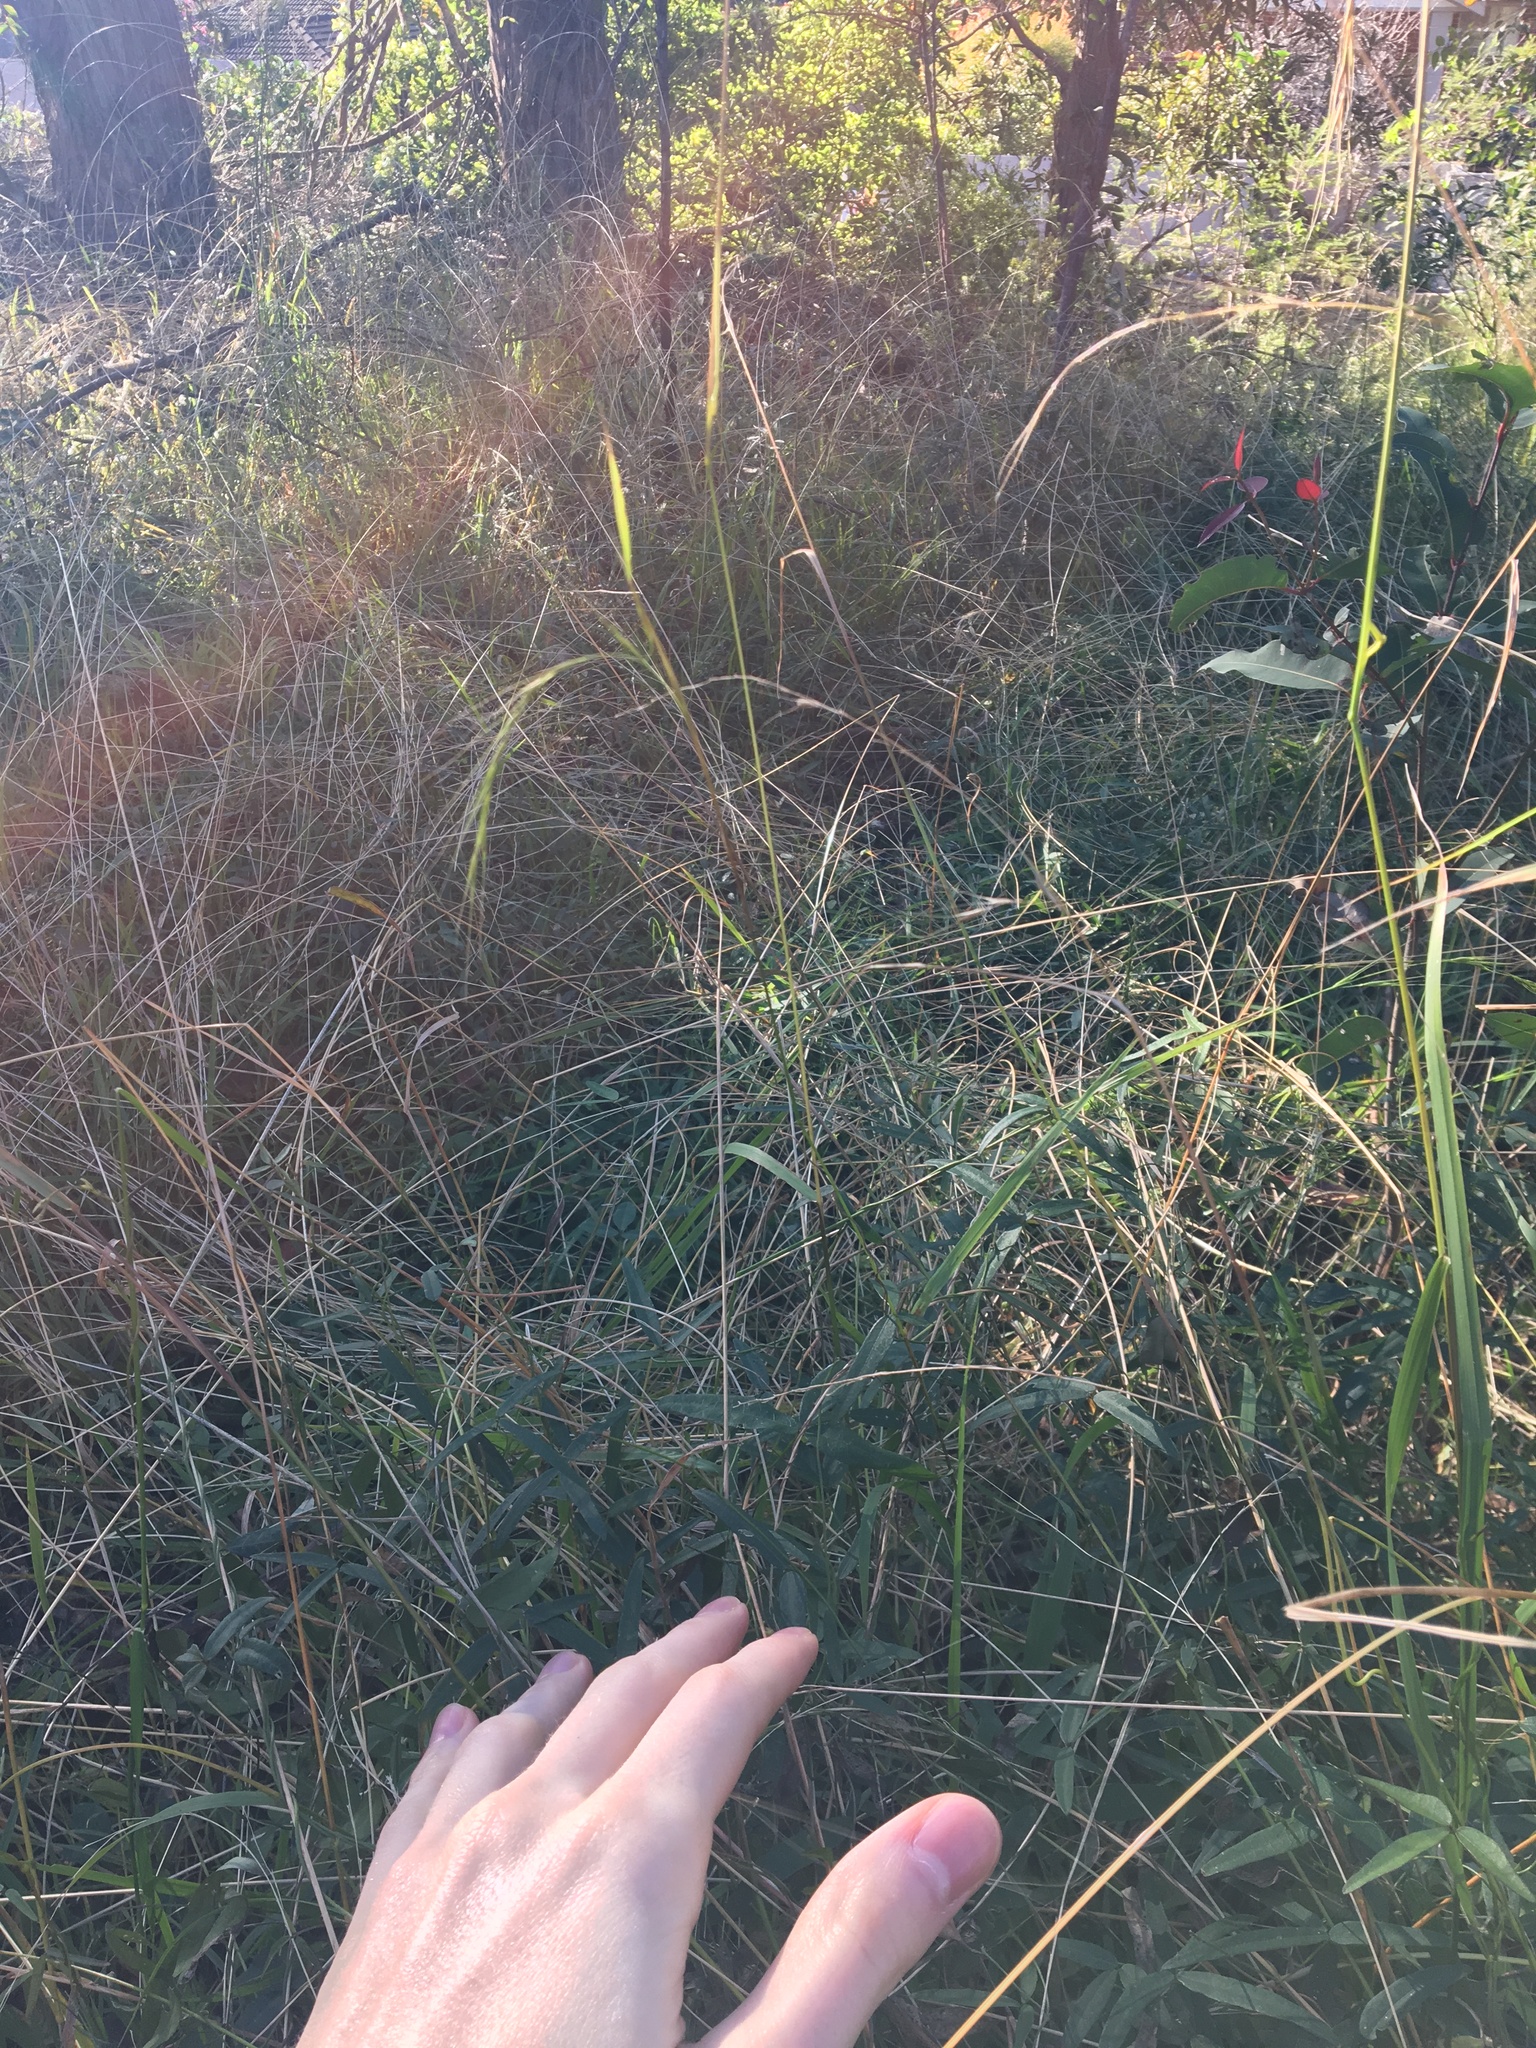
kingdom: Plantae
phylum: Tracheophyta
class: Liliopsida
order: Poales
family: Poaceae
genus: Microlaena
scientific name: Microlaena stipoides
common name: Meadow ricegrass
